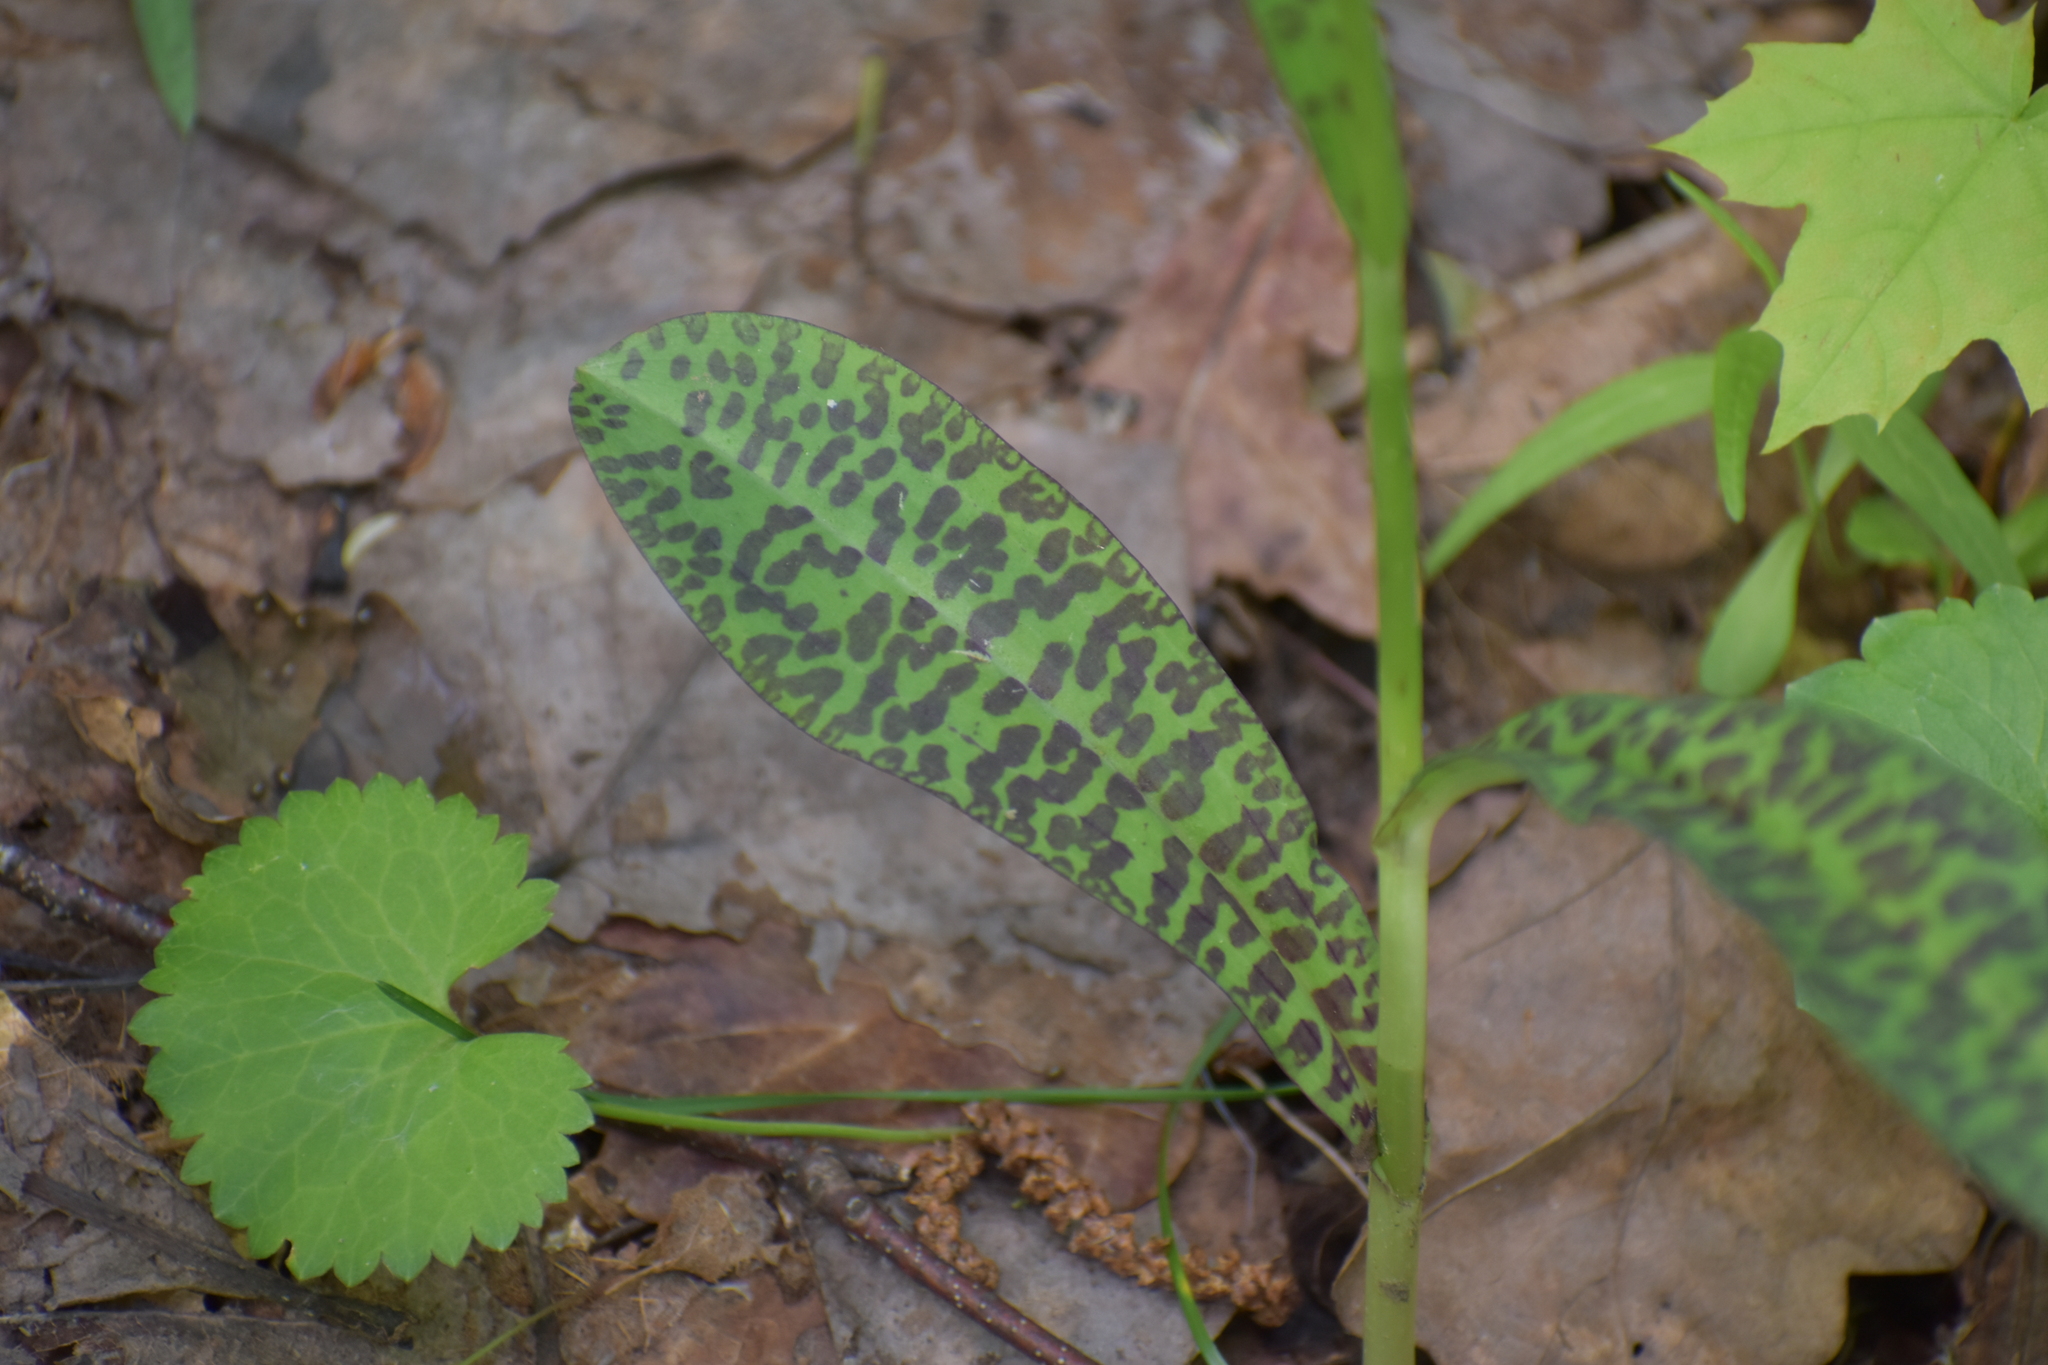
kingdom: Plantae
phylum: Tracheophyta
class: Liliopsida
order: Asparagales
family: Orchidaceae
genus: Dactylorhiza
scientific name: Dactylorhiza maculata
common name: Heath spotted-orchid
